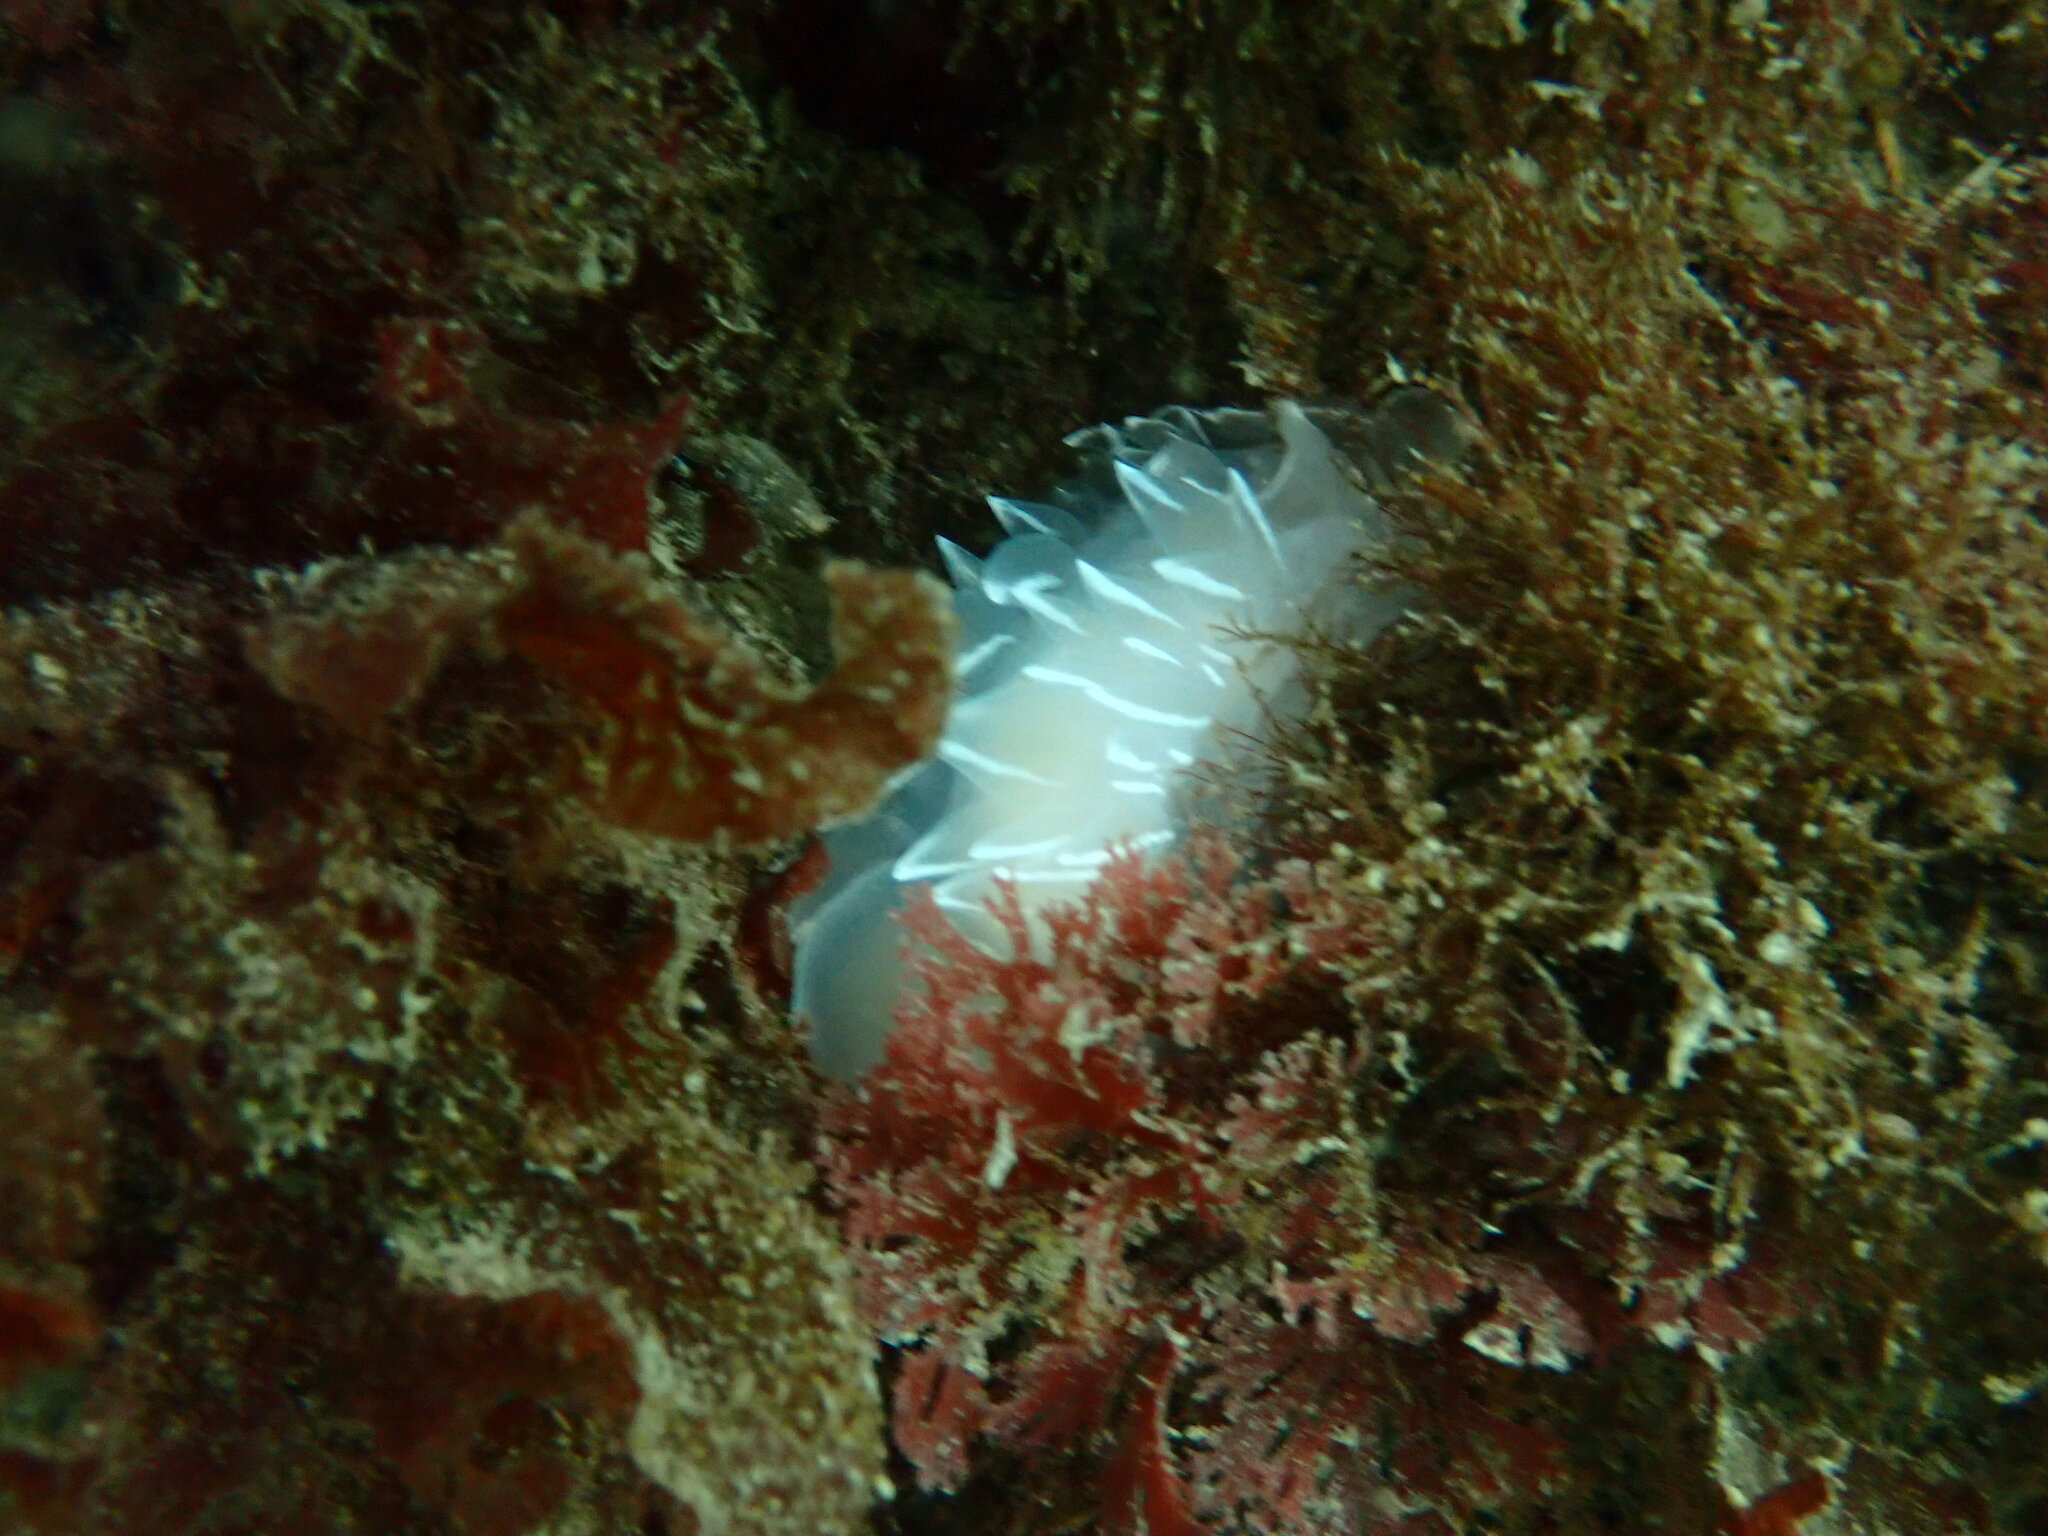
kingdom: Animalia
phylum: Mollusca
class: Gastropoda
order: Nudibranchia
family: Dironidae
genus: Dirona
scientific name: Dirona albolineata
